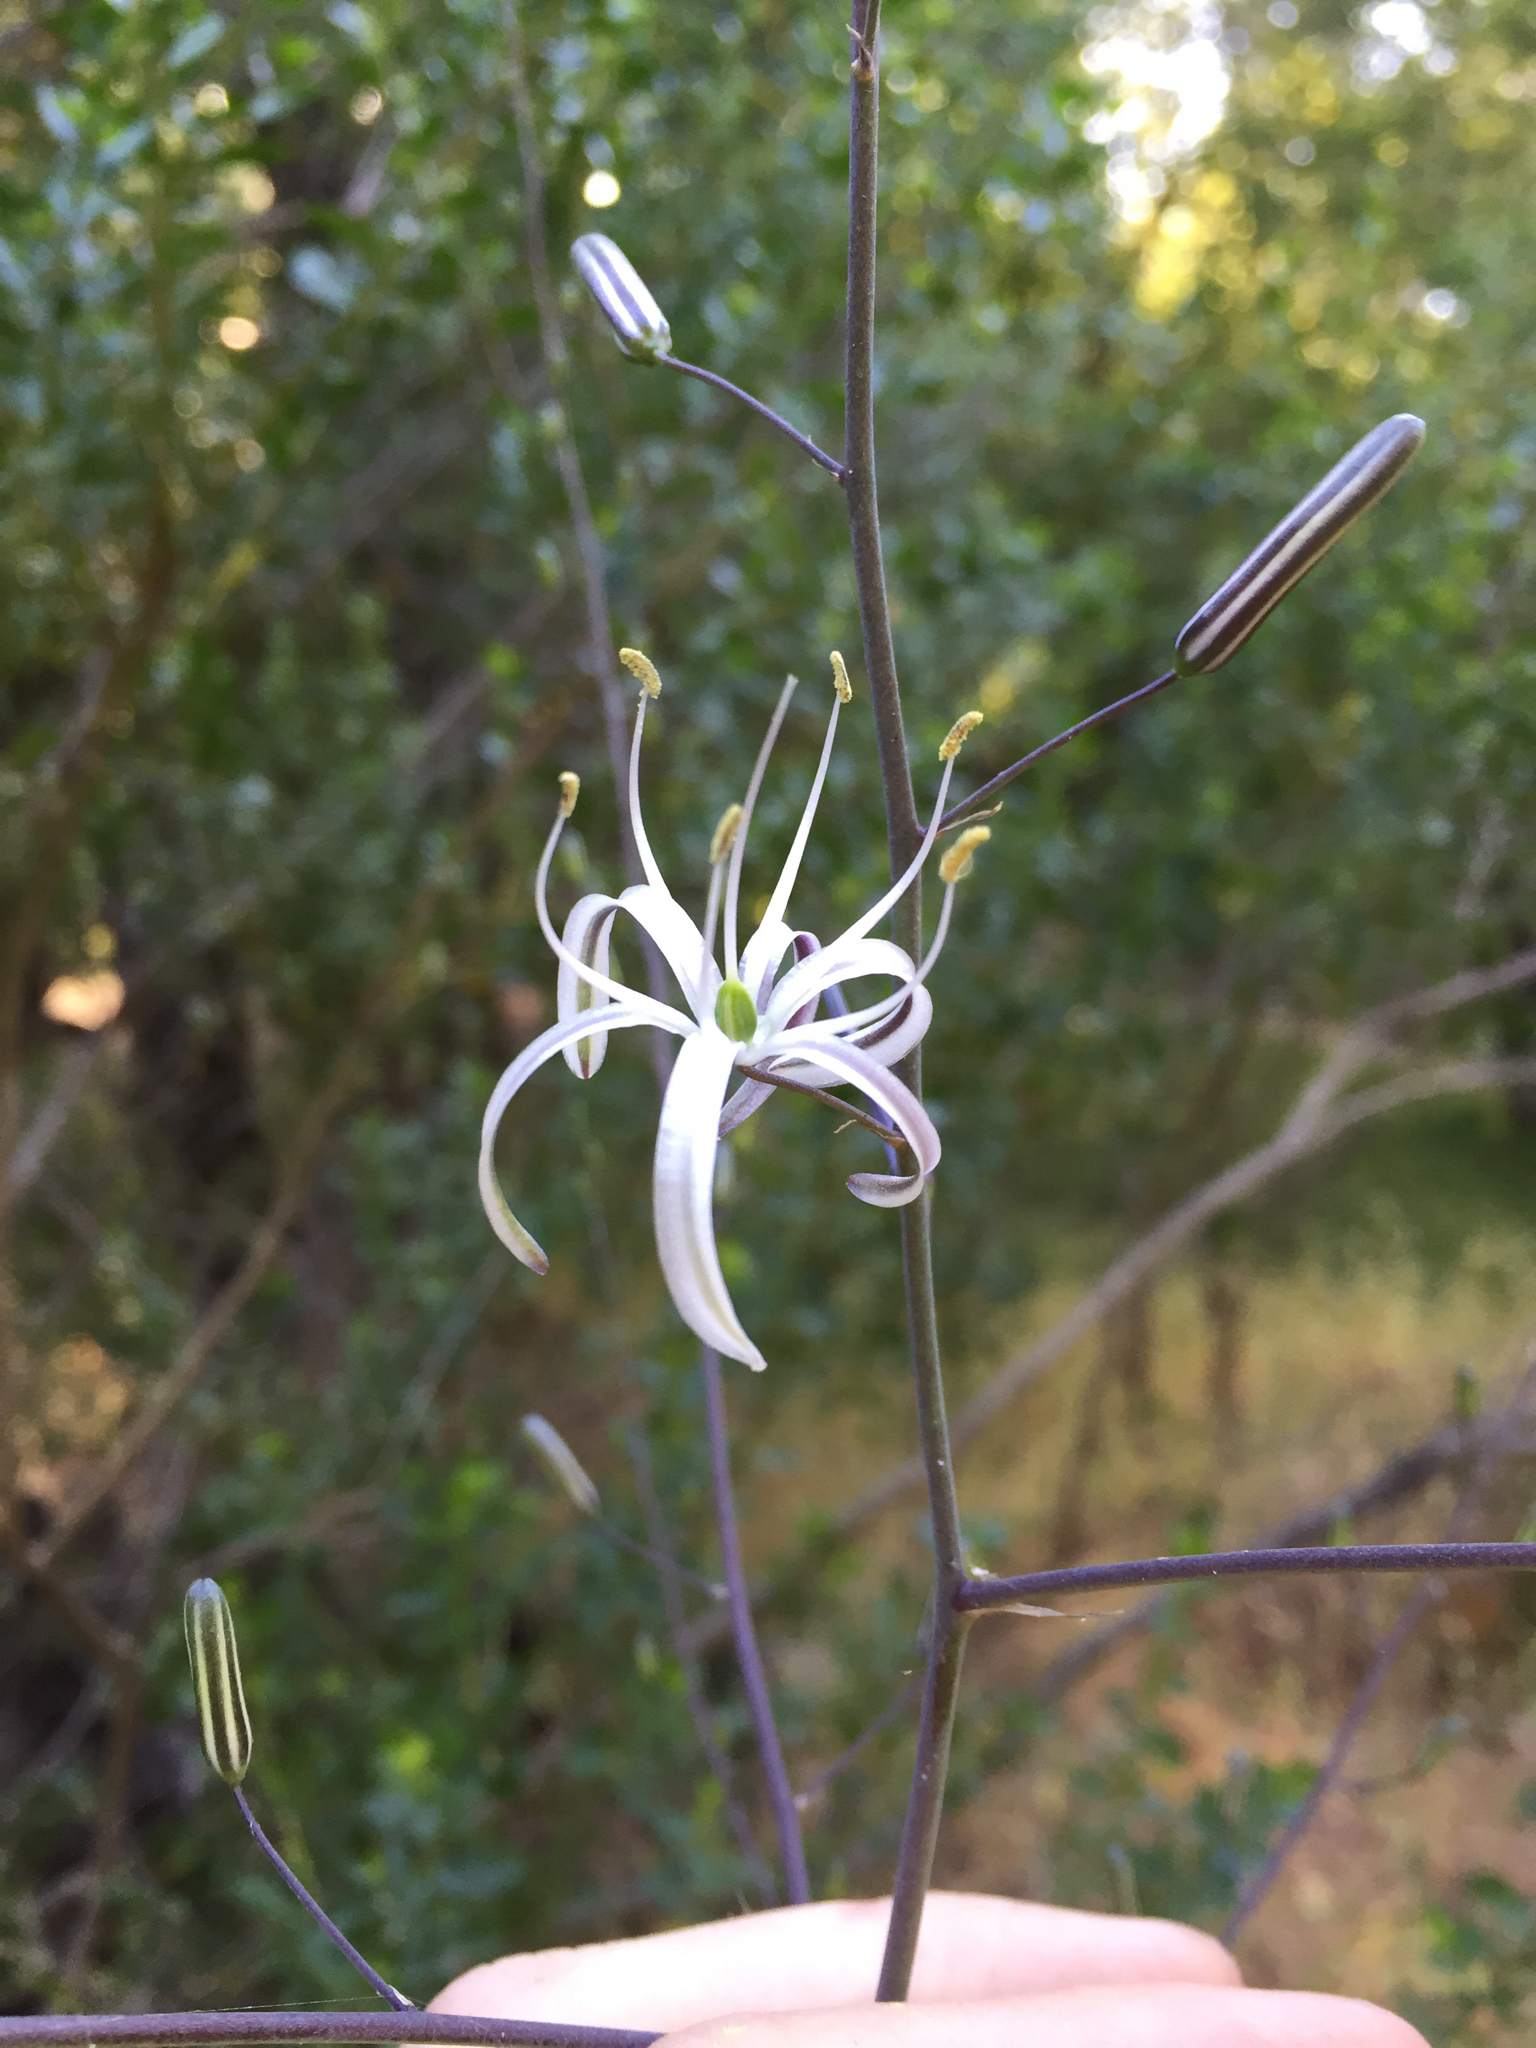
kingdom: Plantae
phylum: Tracheophyta
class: Liliopsida
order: Asparagales
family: Asparagaceae
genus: Chlorogalum
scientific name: Chlorogalum pomeridianum
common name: Amole
